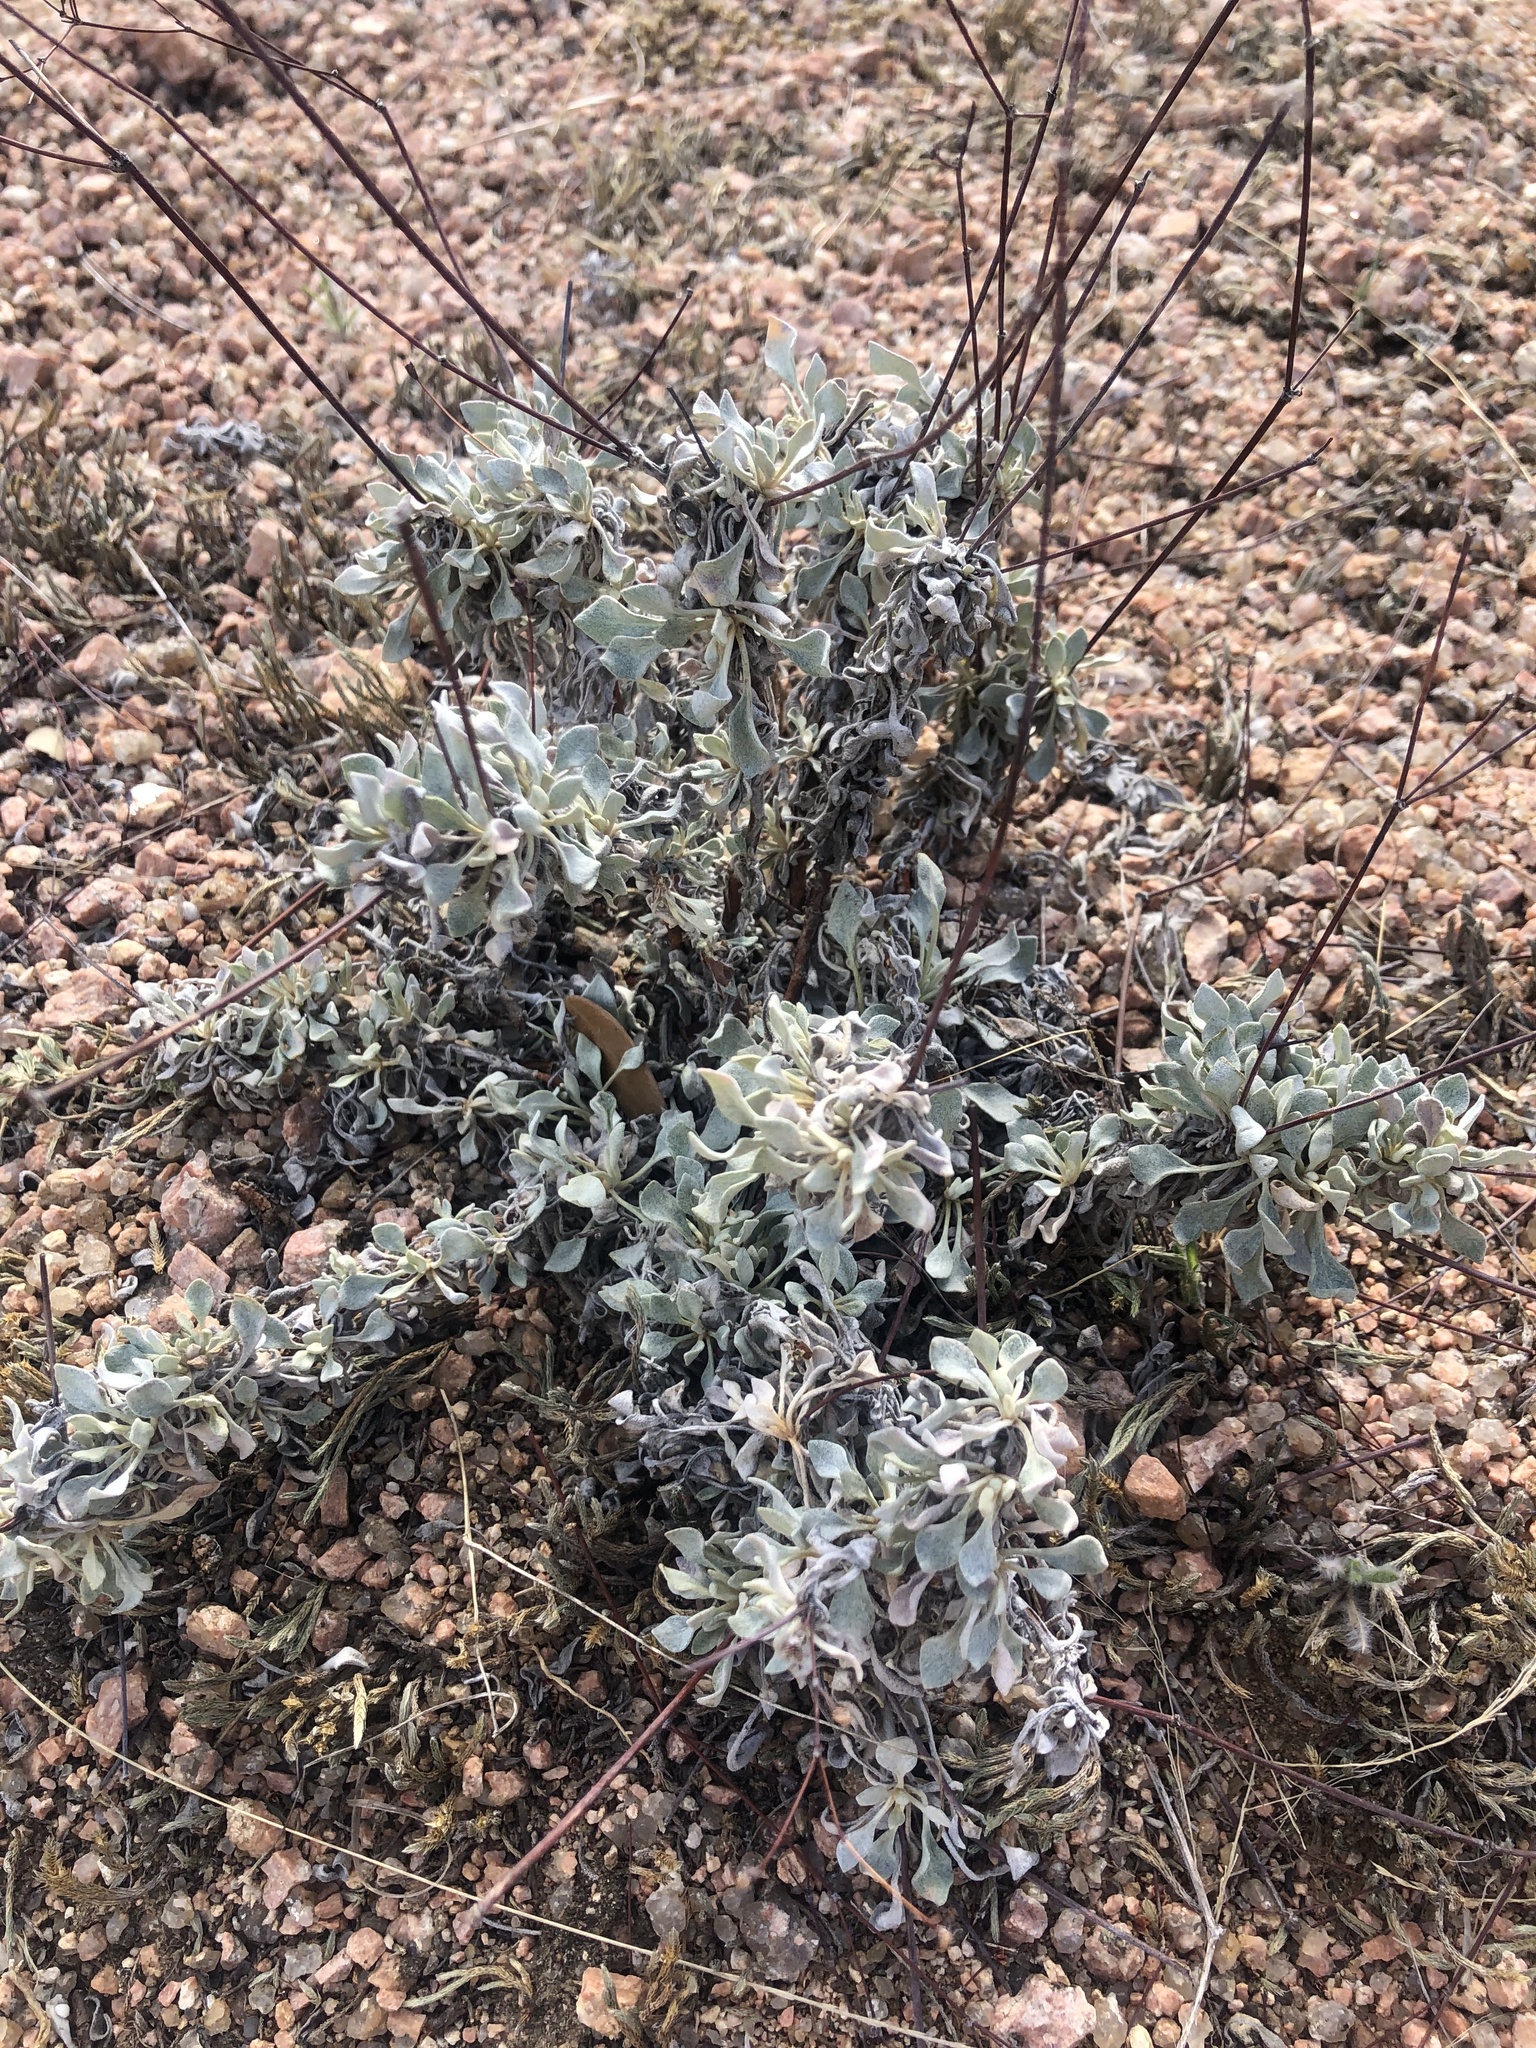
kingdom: Plantae
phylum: Tracheophyta
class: Magnoliopsida
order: Caryophyllales
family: Polygonaceae
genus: Eriogonum
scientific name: Eriogonum graniticum
